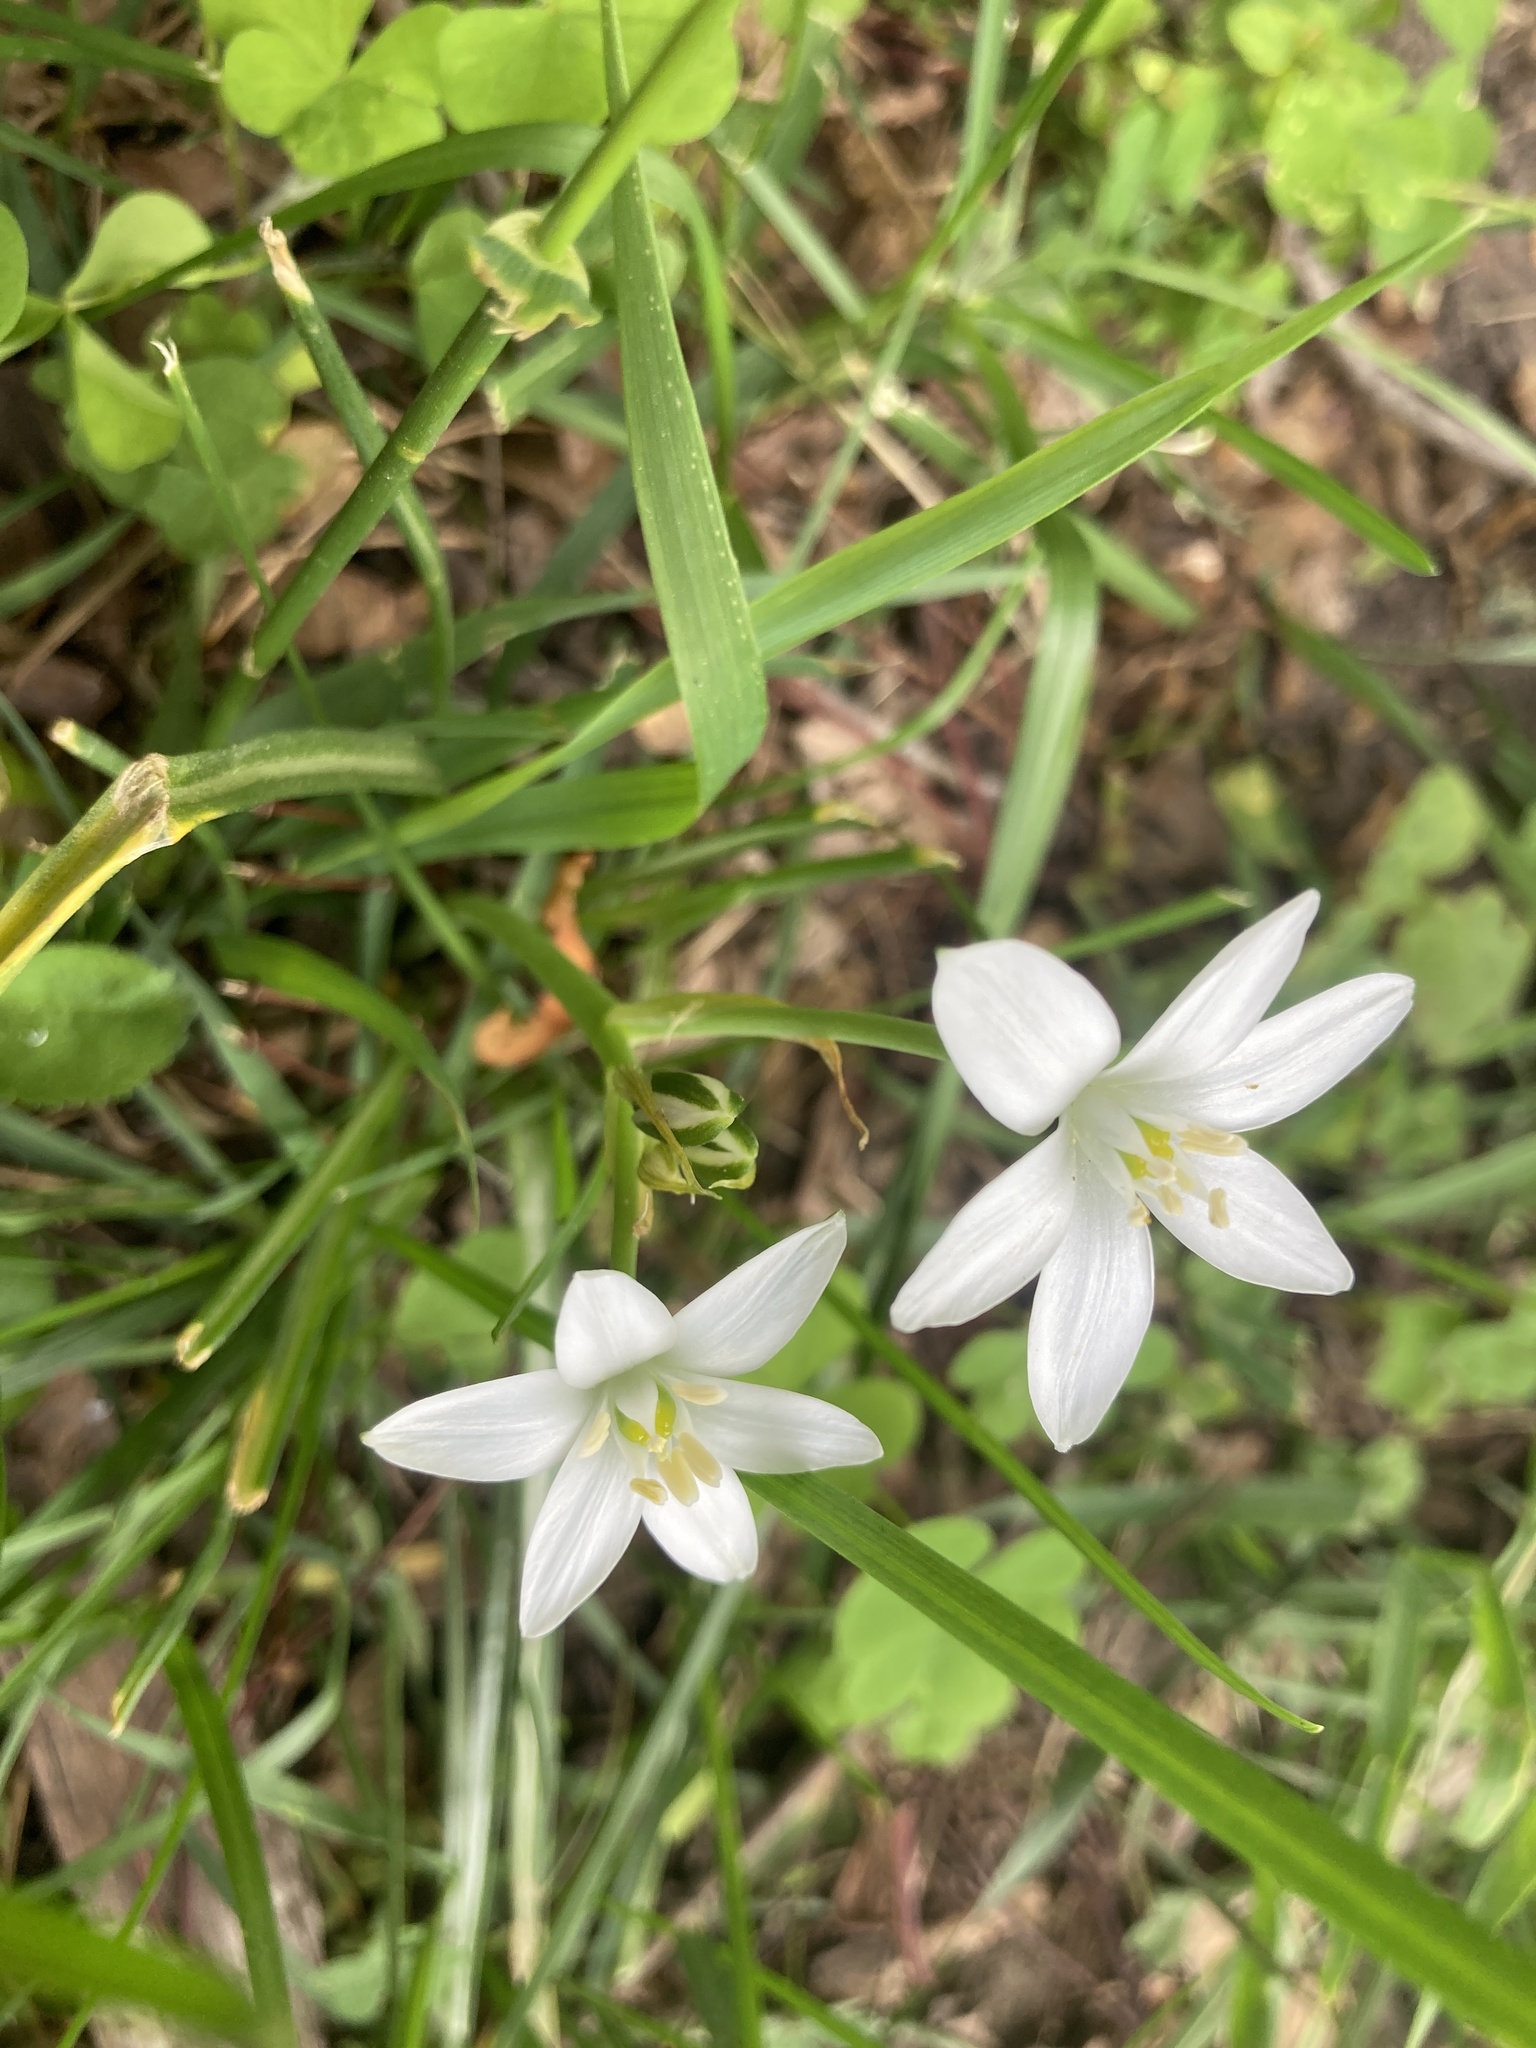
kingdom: Plantae
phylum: Tracheophyta
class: Liliopsida
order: Asparagales
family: Asparagaceae
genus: Ornithogalum
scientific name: Ornithogalum umbellatum
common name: Garden star-of-bethlehem
